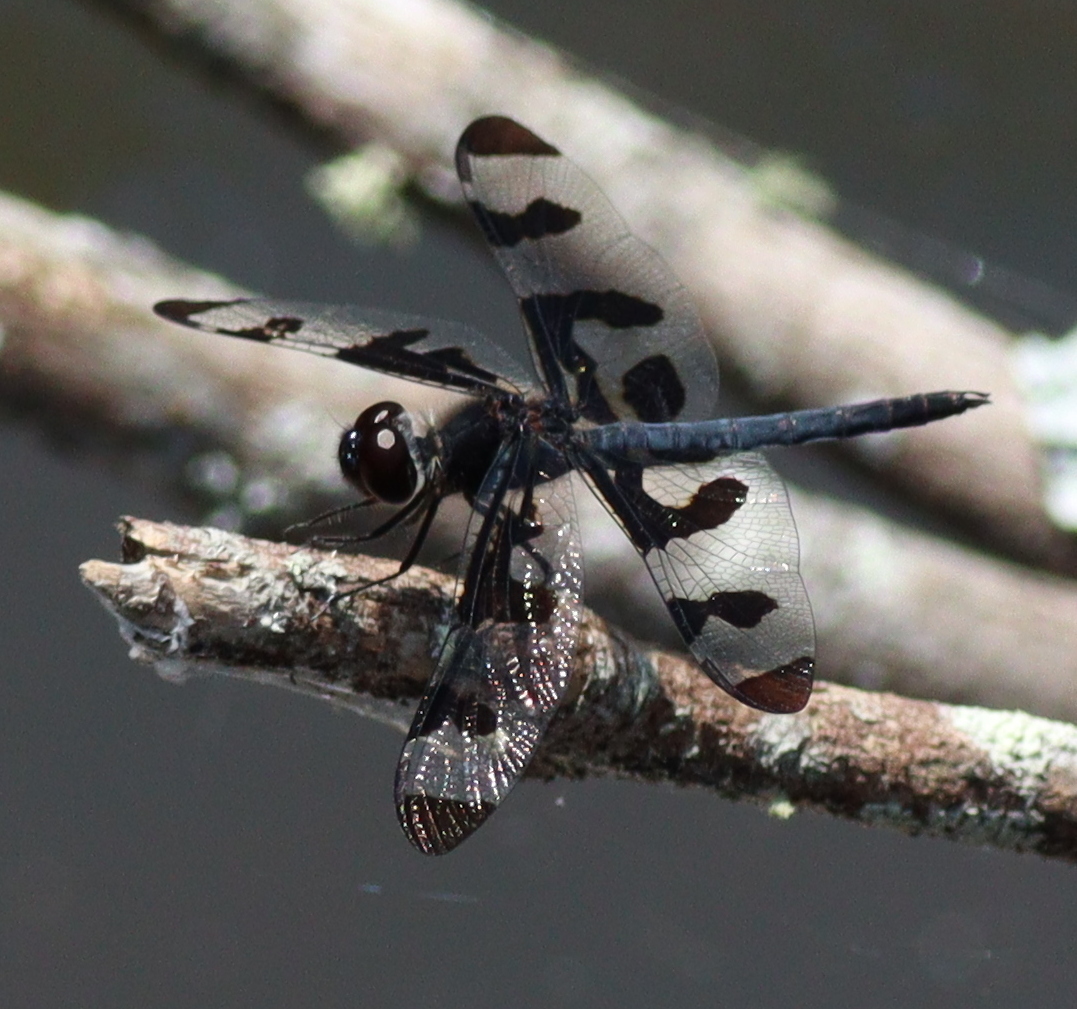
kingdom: Animalia
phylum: Arthropoda
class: Insecta
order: Odonata
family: Libellulidae
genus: Celithemis
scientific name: Celithemis fasciata
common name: Banded pennant
